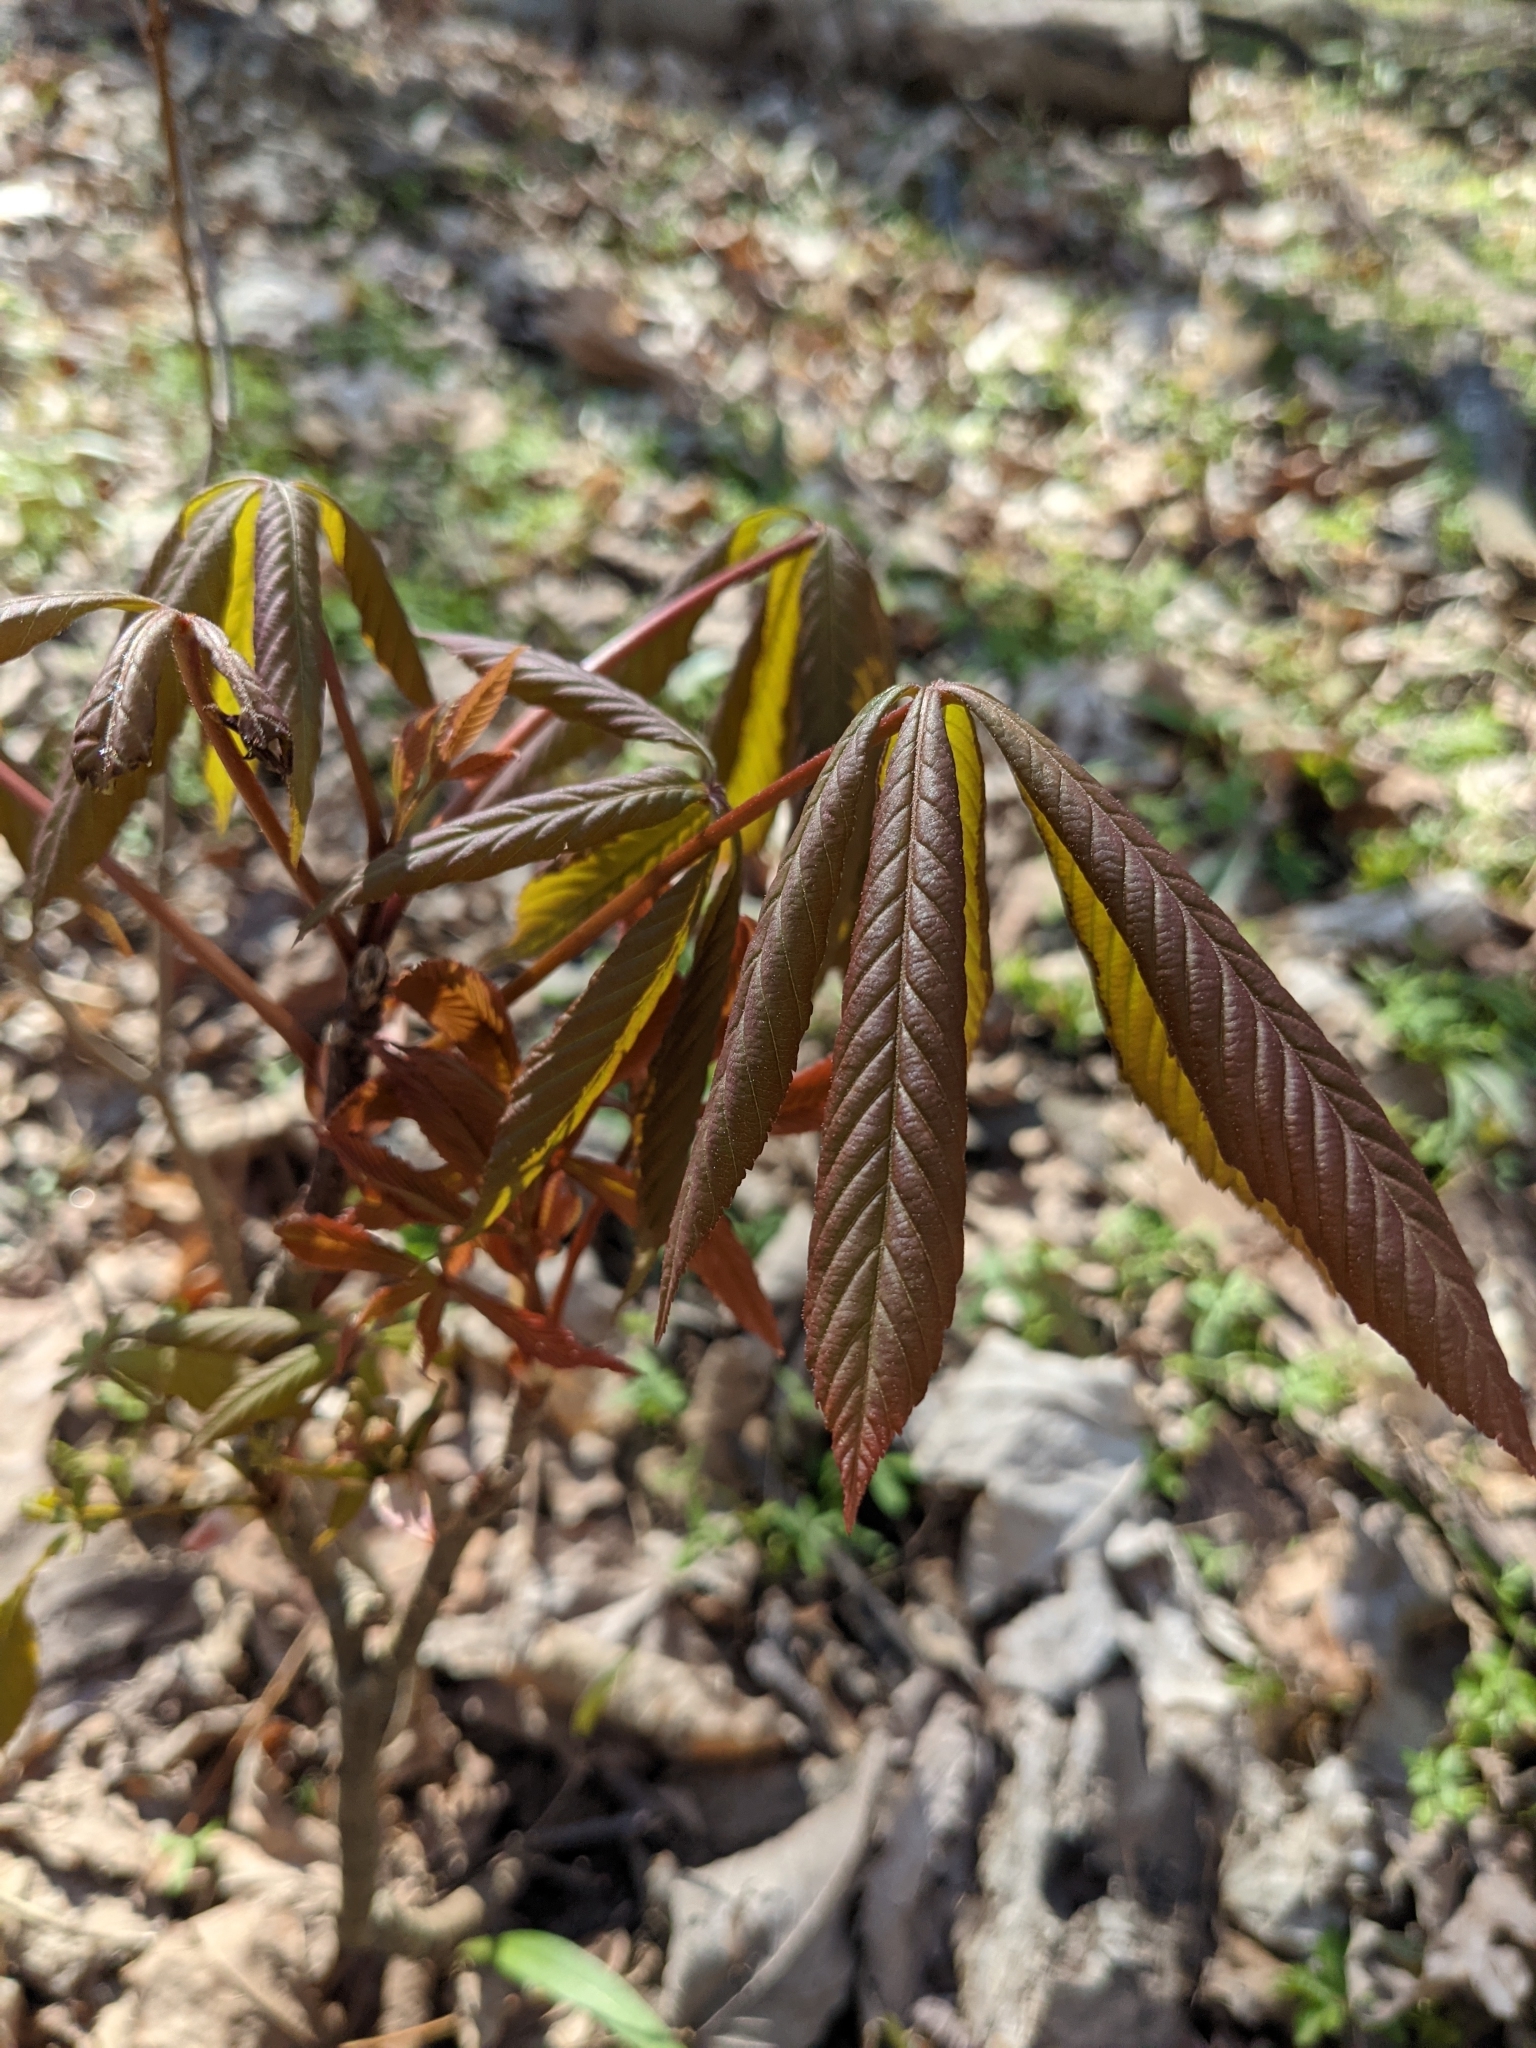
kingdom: Plantae
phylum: Tracheophyta
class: Magnoliopsida
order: Sapindales
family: Sapindaceae
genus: Aesculus
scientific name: Aesculus glabra
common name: Ohio buckeye
